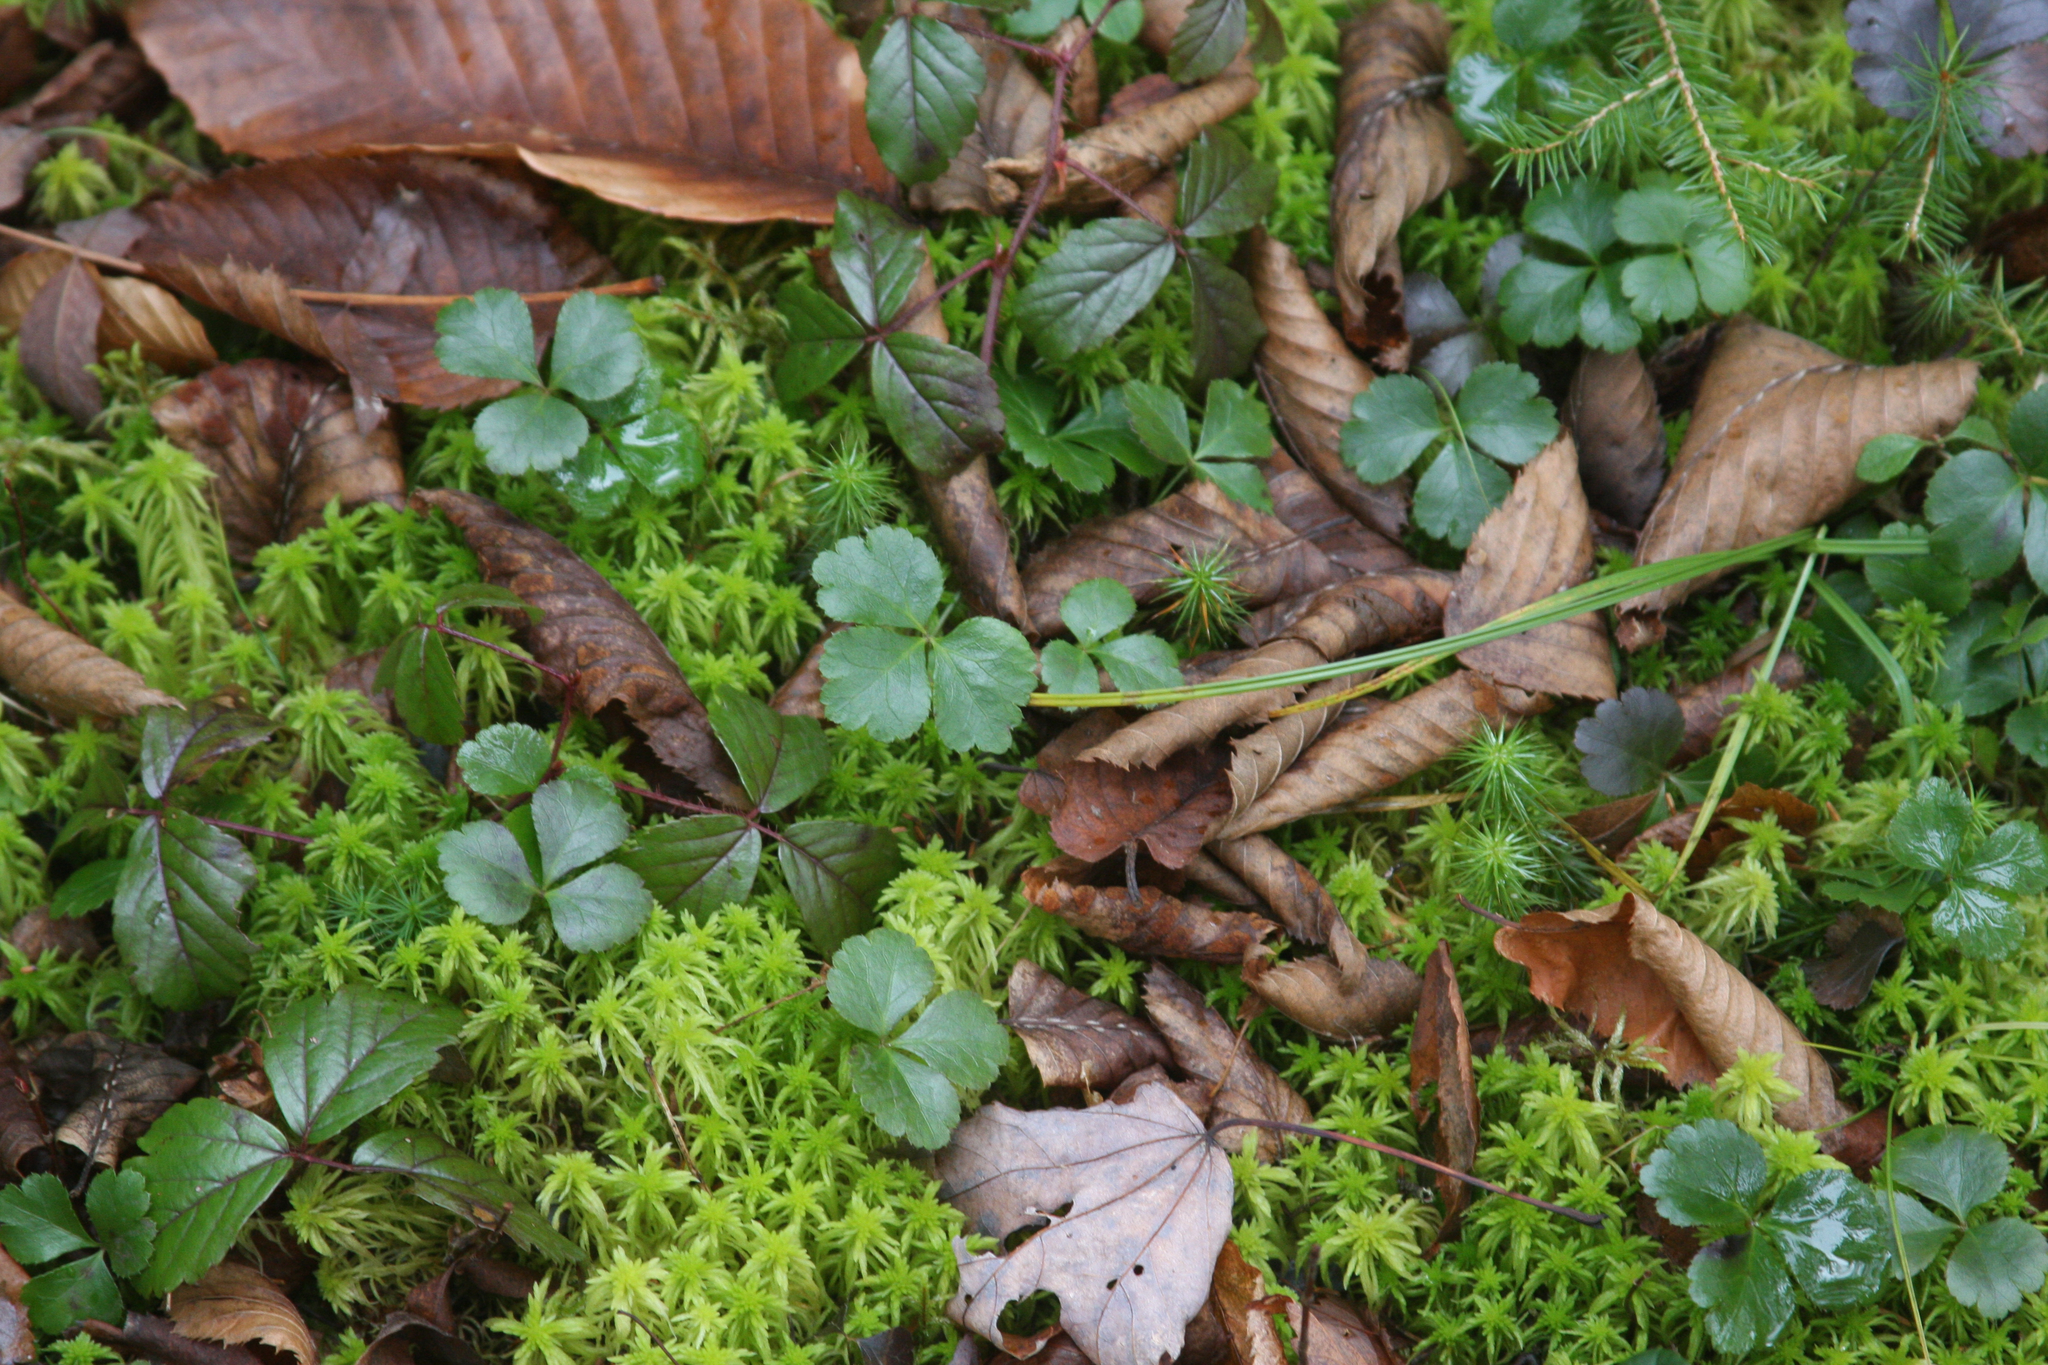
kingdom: Plantae
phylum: Tracheophyta
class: Magnoliopsida
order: Ranunculales
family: Ranunculaceae
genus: Coptis
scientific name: Coptis trifolia
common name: Canker-root
